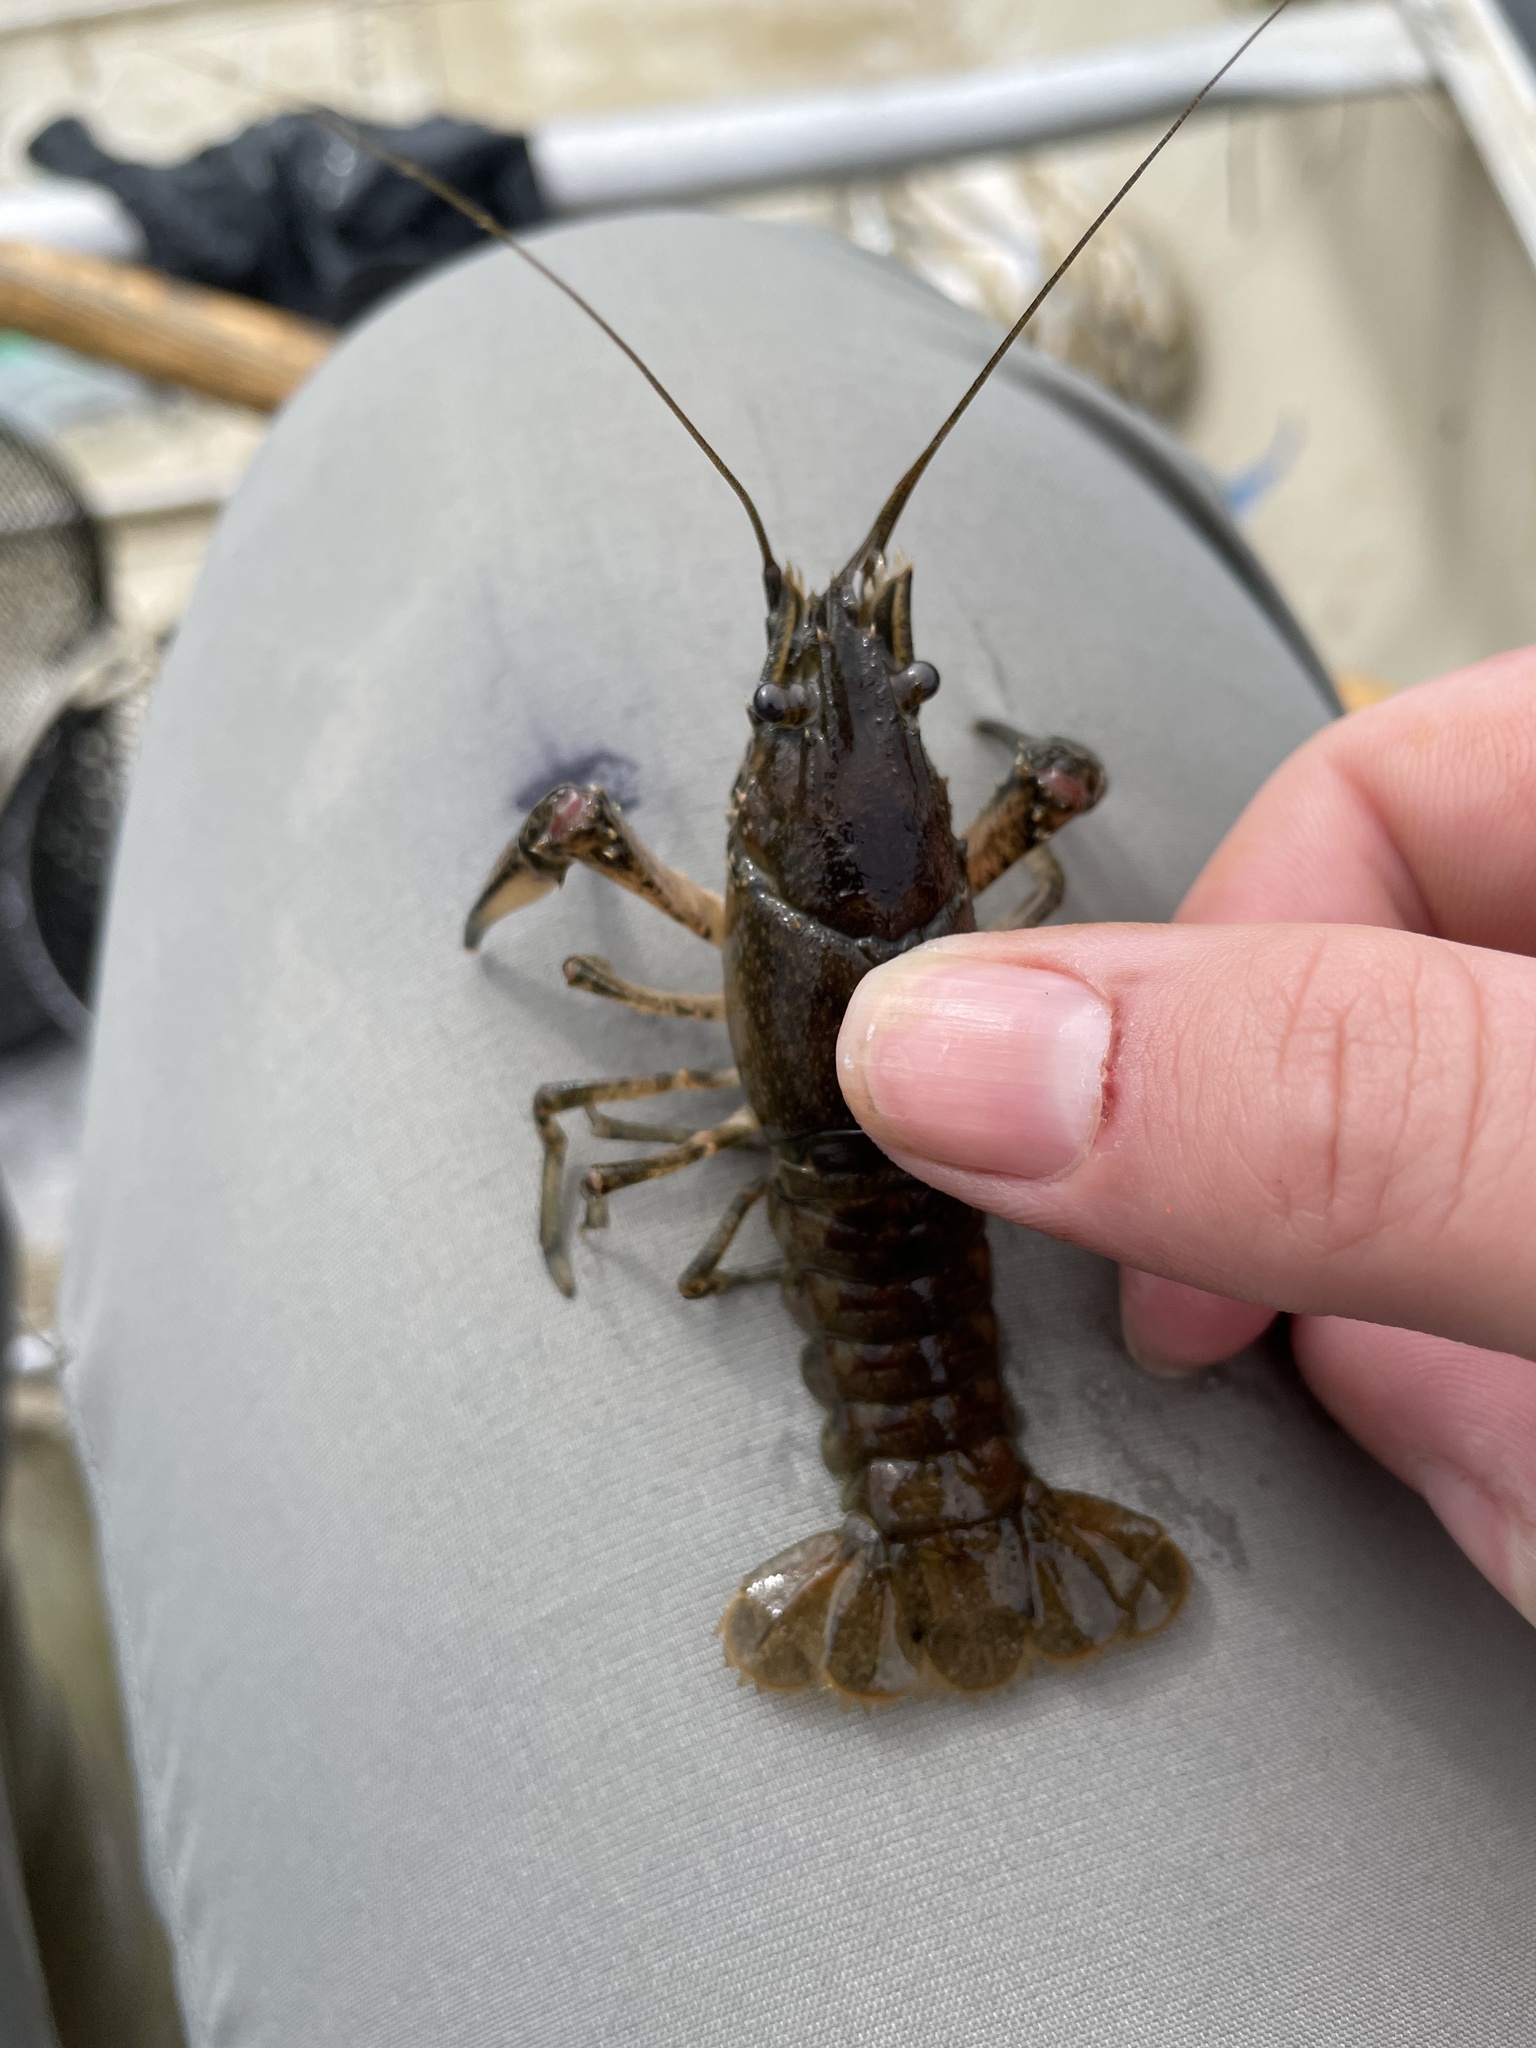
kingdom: Animalia
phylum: Arthropoda
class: Malacostraca
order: Decapoda
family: Cambaridae
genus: Faxonius
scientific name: Faxonius limosus
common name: American crayfish
